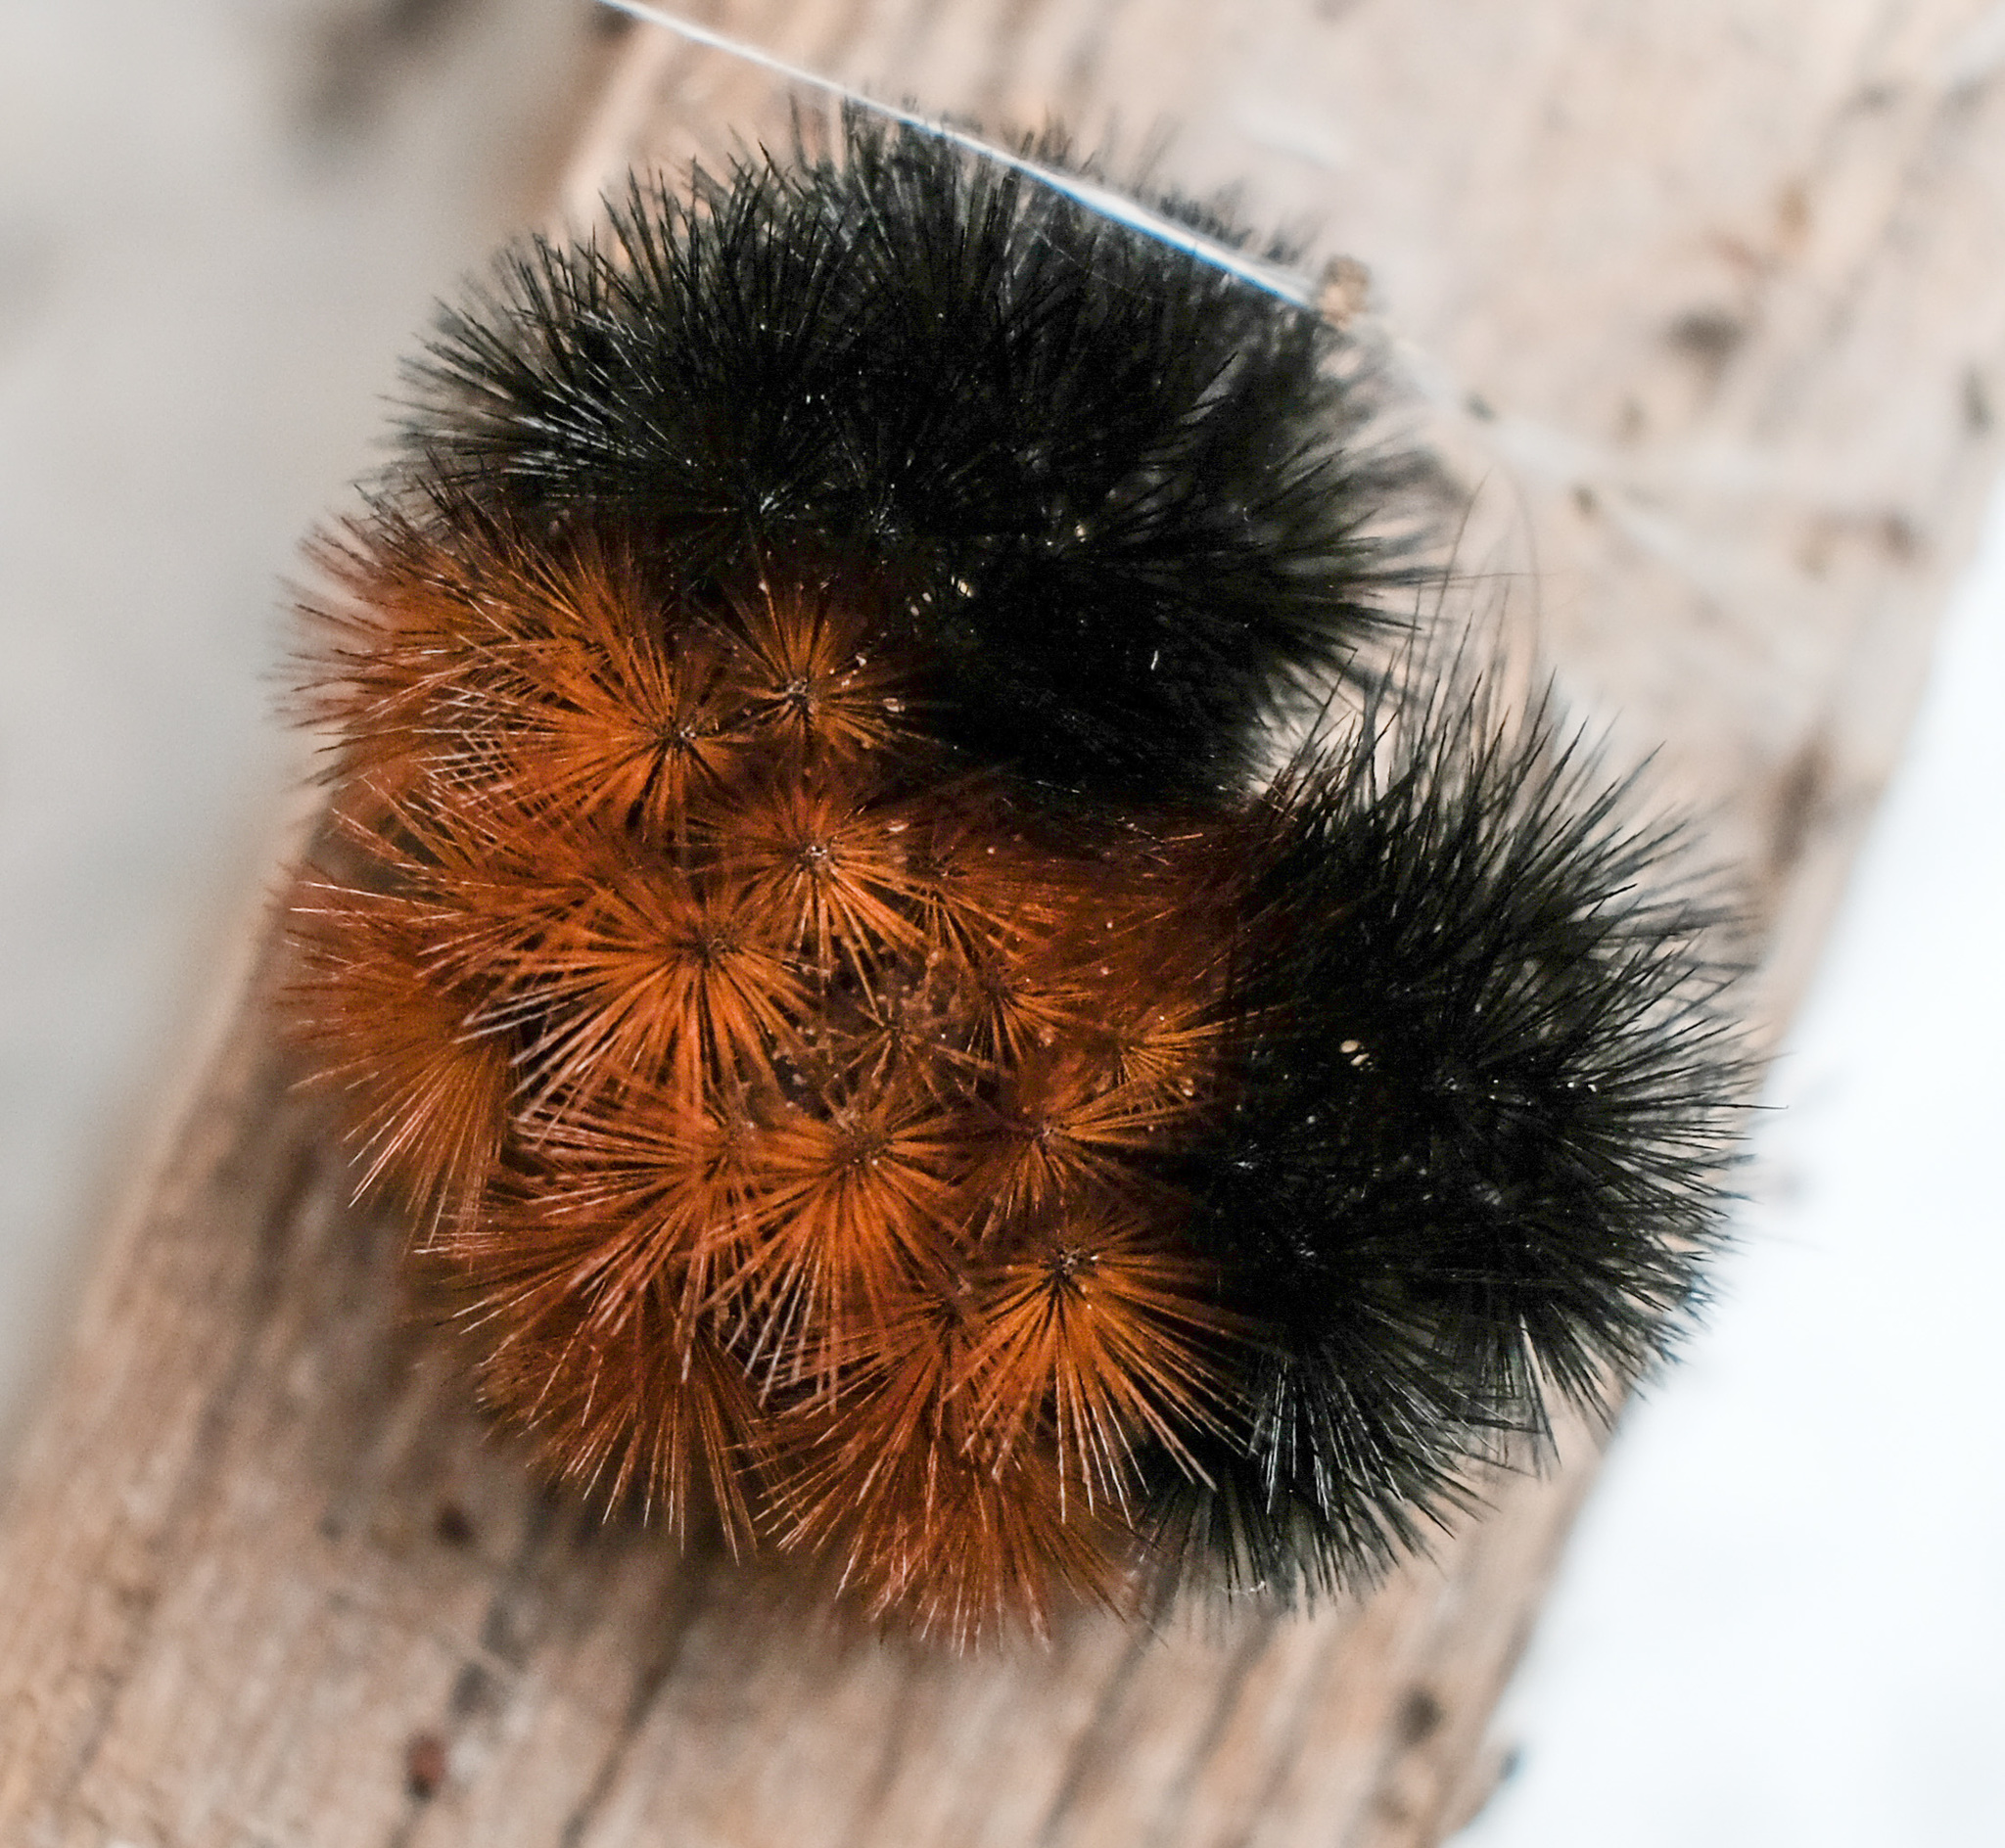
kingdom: Animalia
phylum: Arthropoda
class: Insecta
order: Lepidoptera
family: Erebidae
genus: Pyrrharctia
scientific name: Pyrrharctia isabella
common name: Isabella tiger moth
